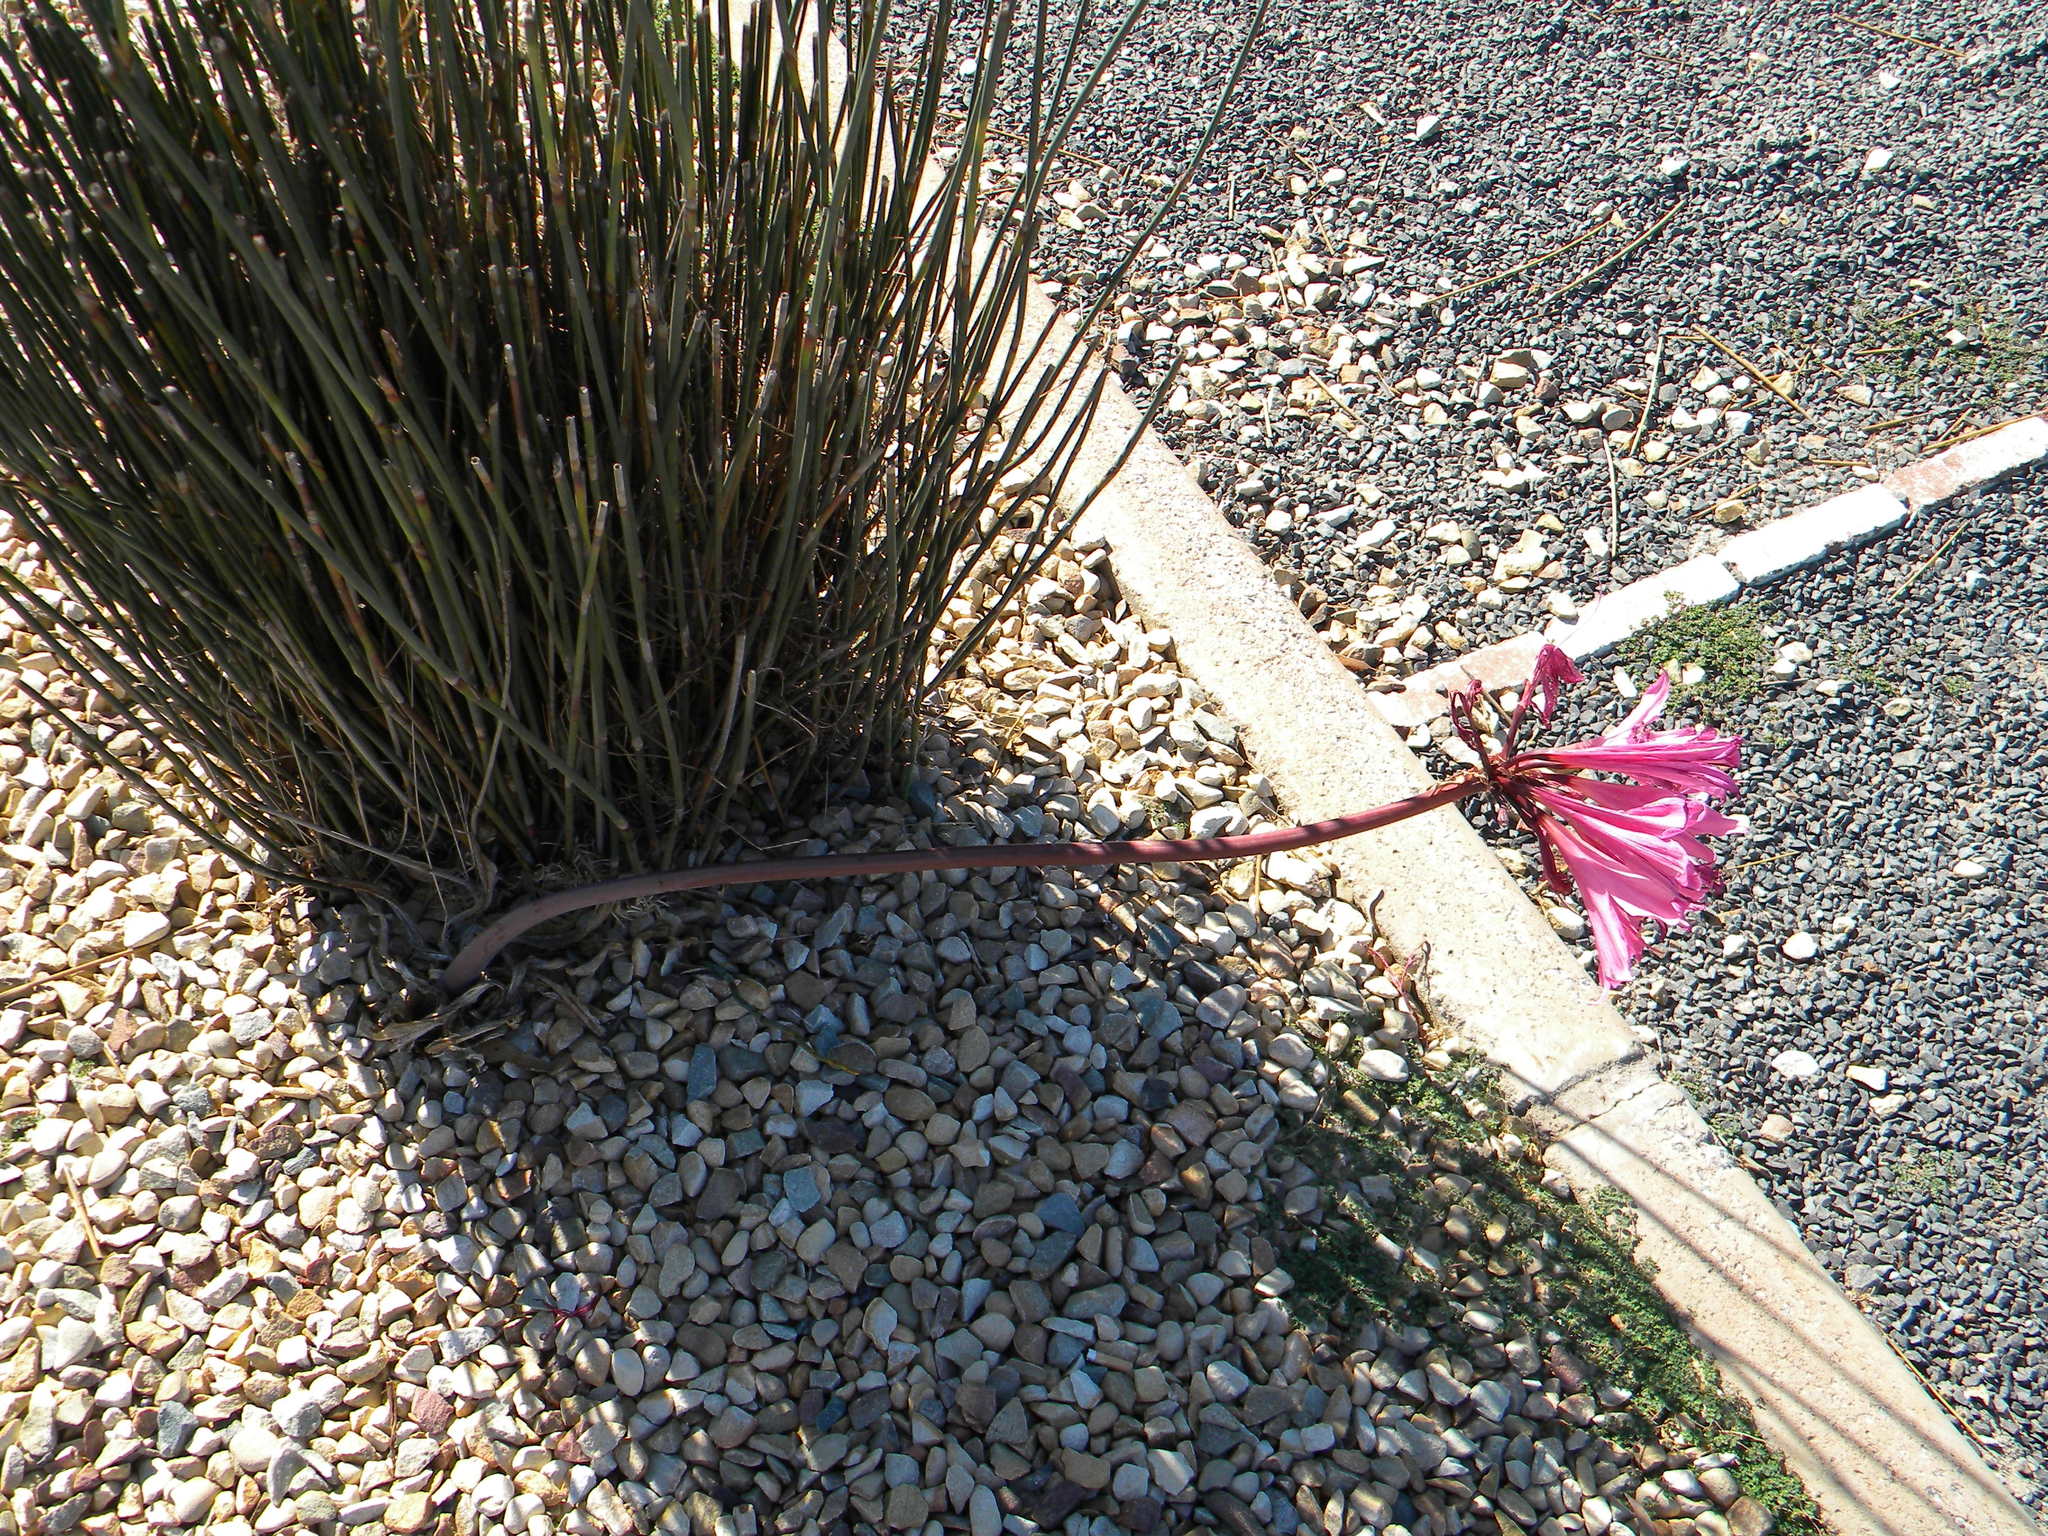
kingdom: Plantae
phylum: Tracheophyta
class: Liliopsida
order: Asparagales
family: Amaryllidaceae
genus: Amaryllis
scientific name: Amaryllis belladonna
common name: Jersey lily
